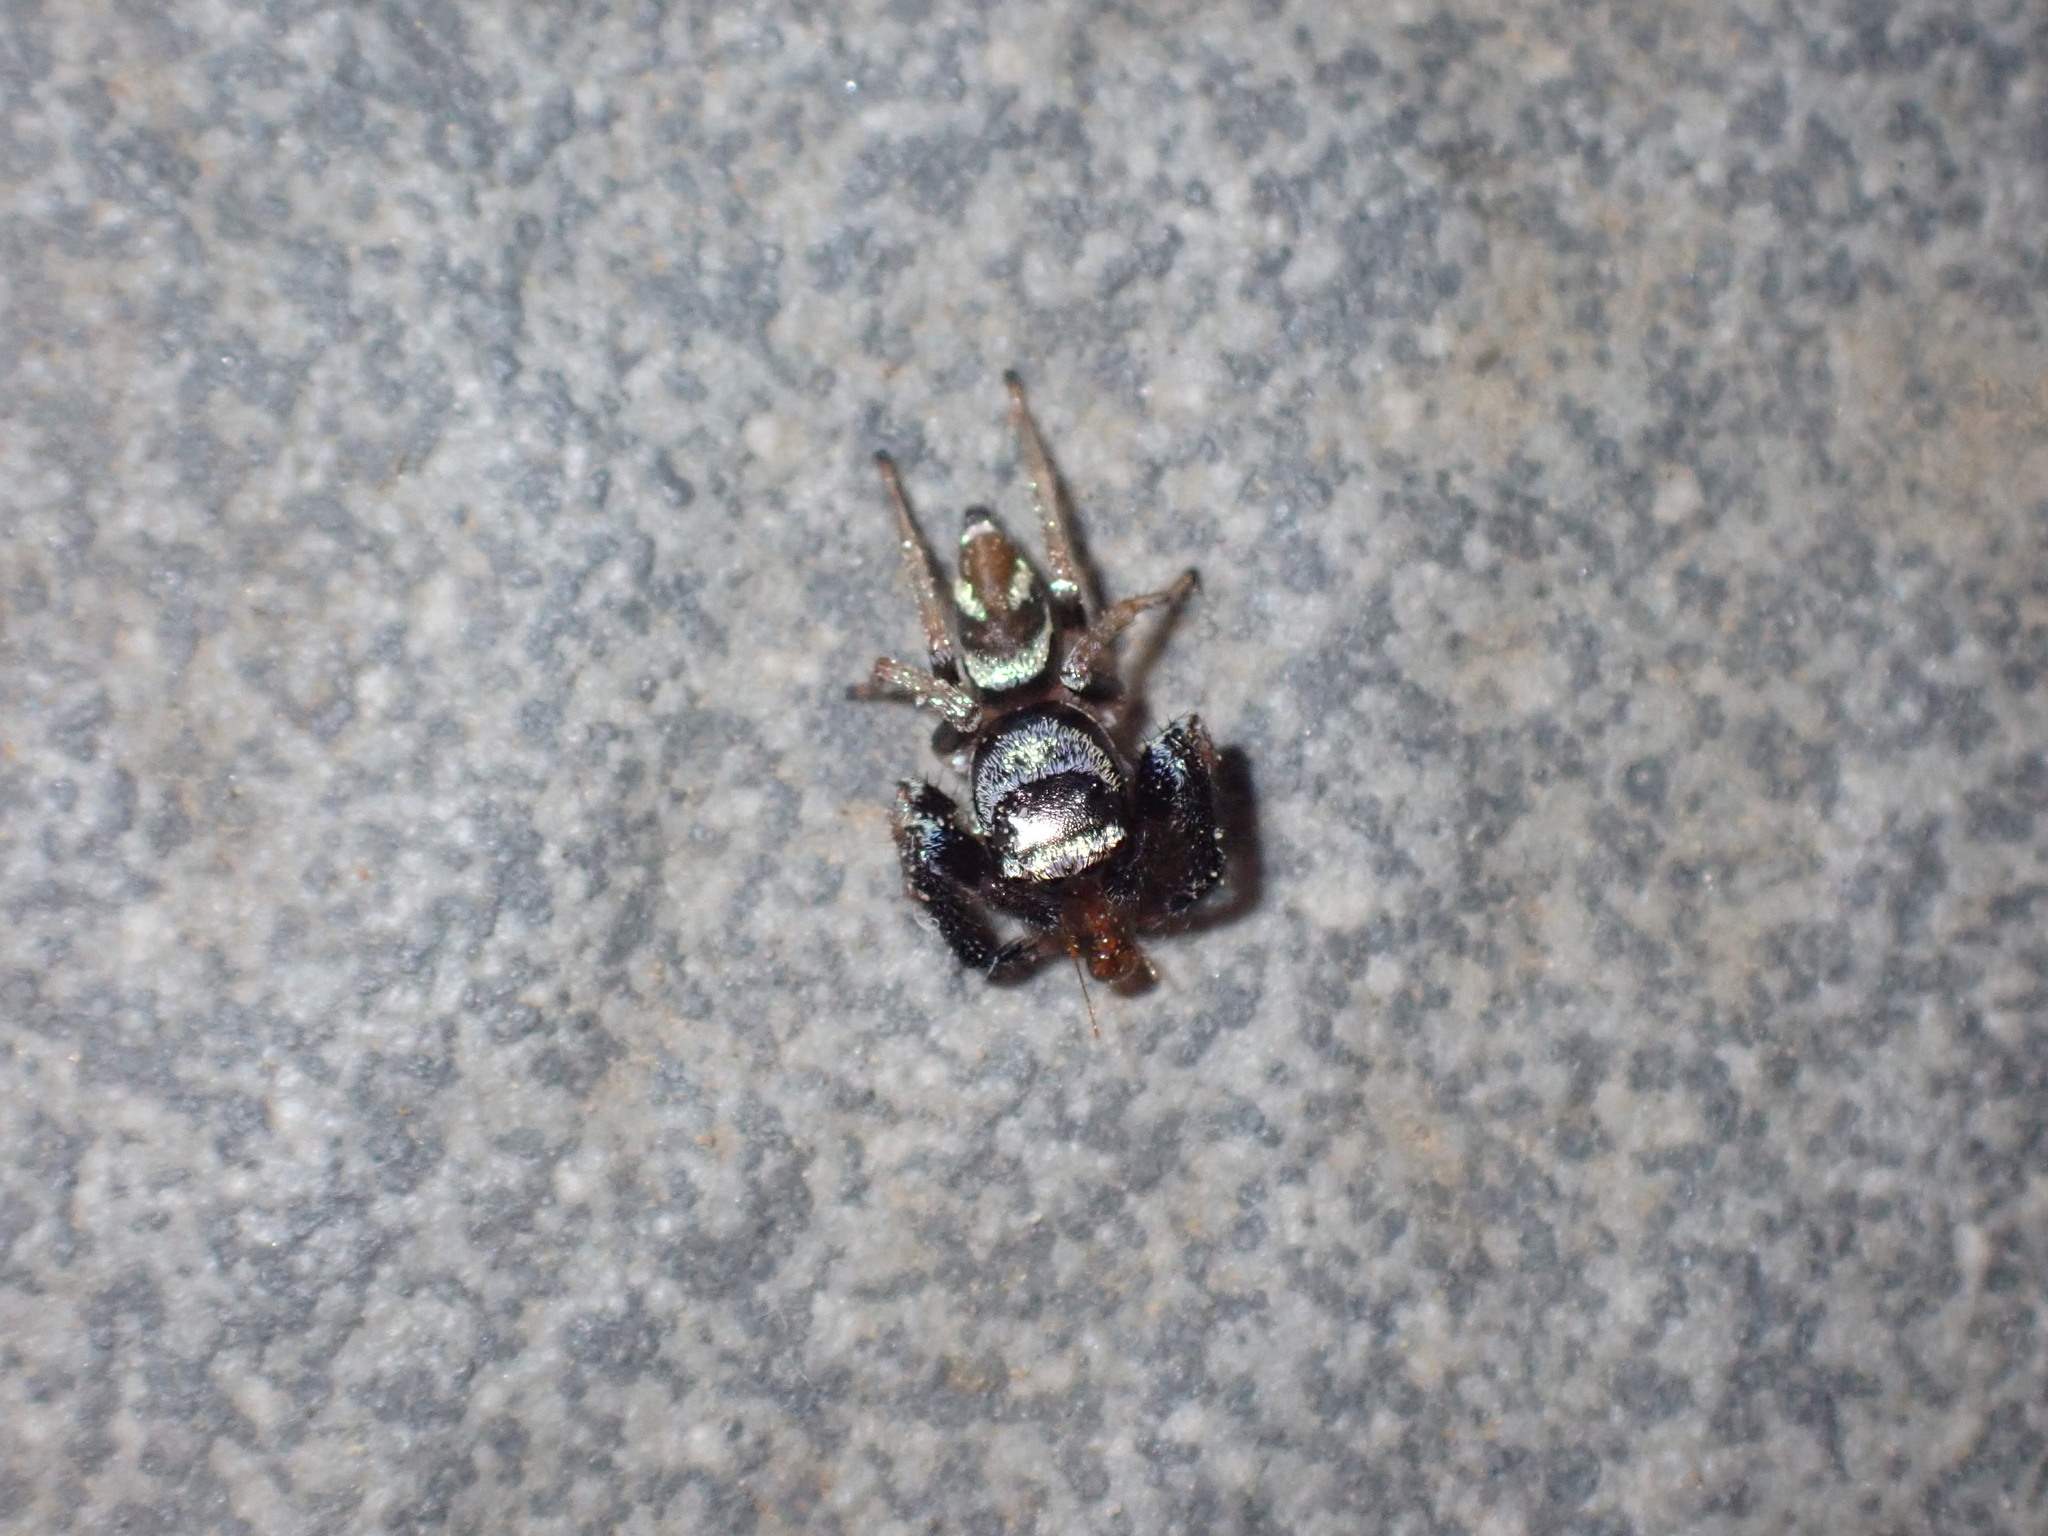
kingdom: Animalia
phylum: Arthropoda
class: Arachnida
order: Araneae
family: Salticidae
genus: Thiania
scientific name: Thiania bhamoensis
